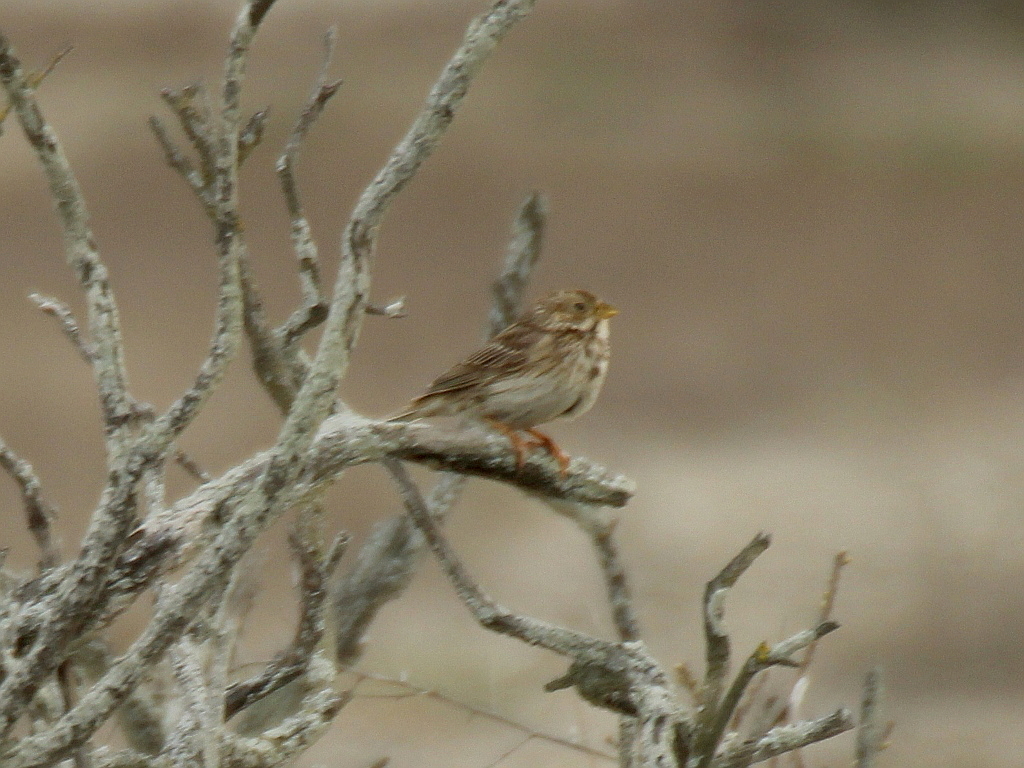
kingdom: Animalia
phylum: Chordata
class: Aves
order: Passeriformes
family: Emberizidae
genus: Emberiza
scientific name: Emberiza calandra
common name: Corn bunting
